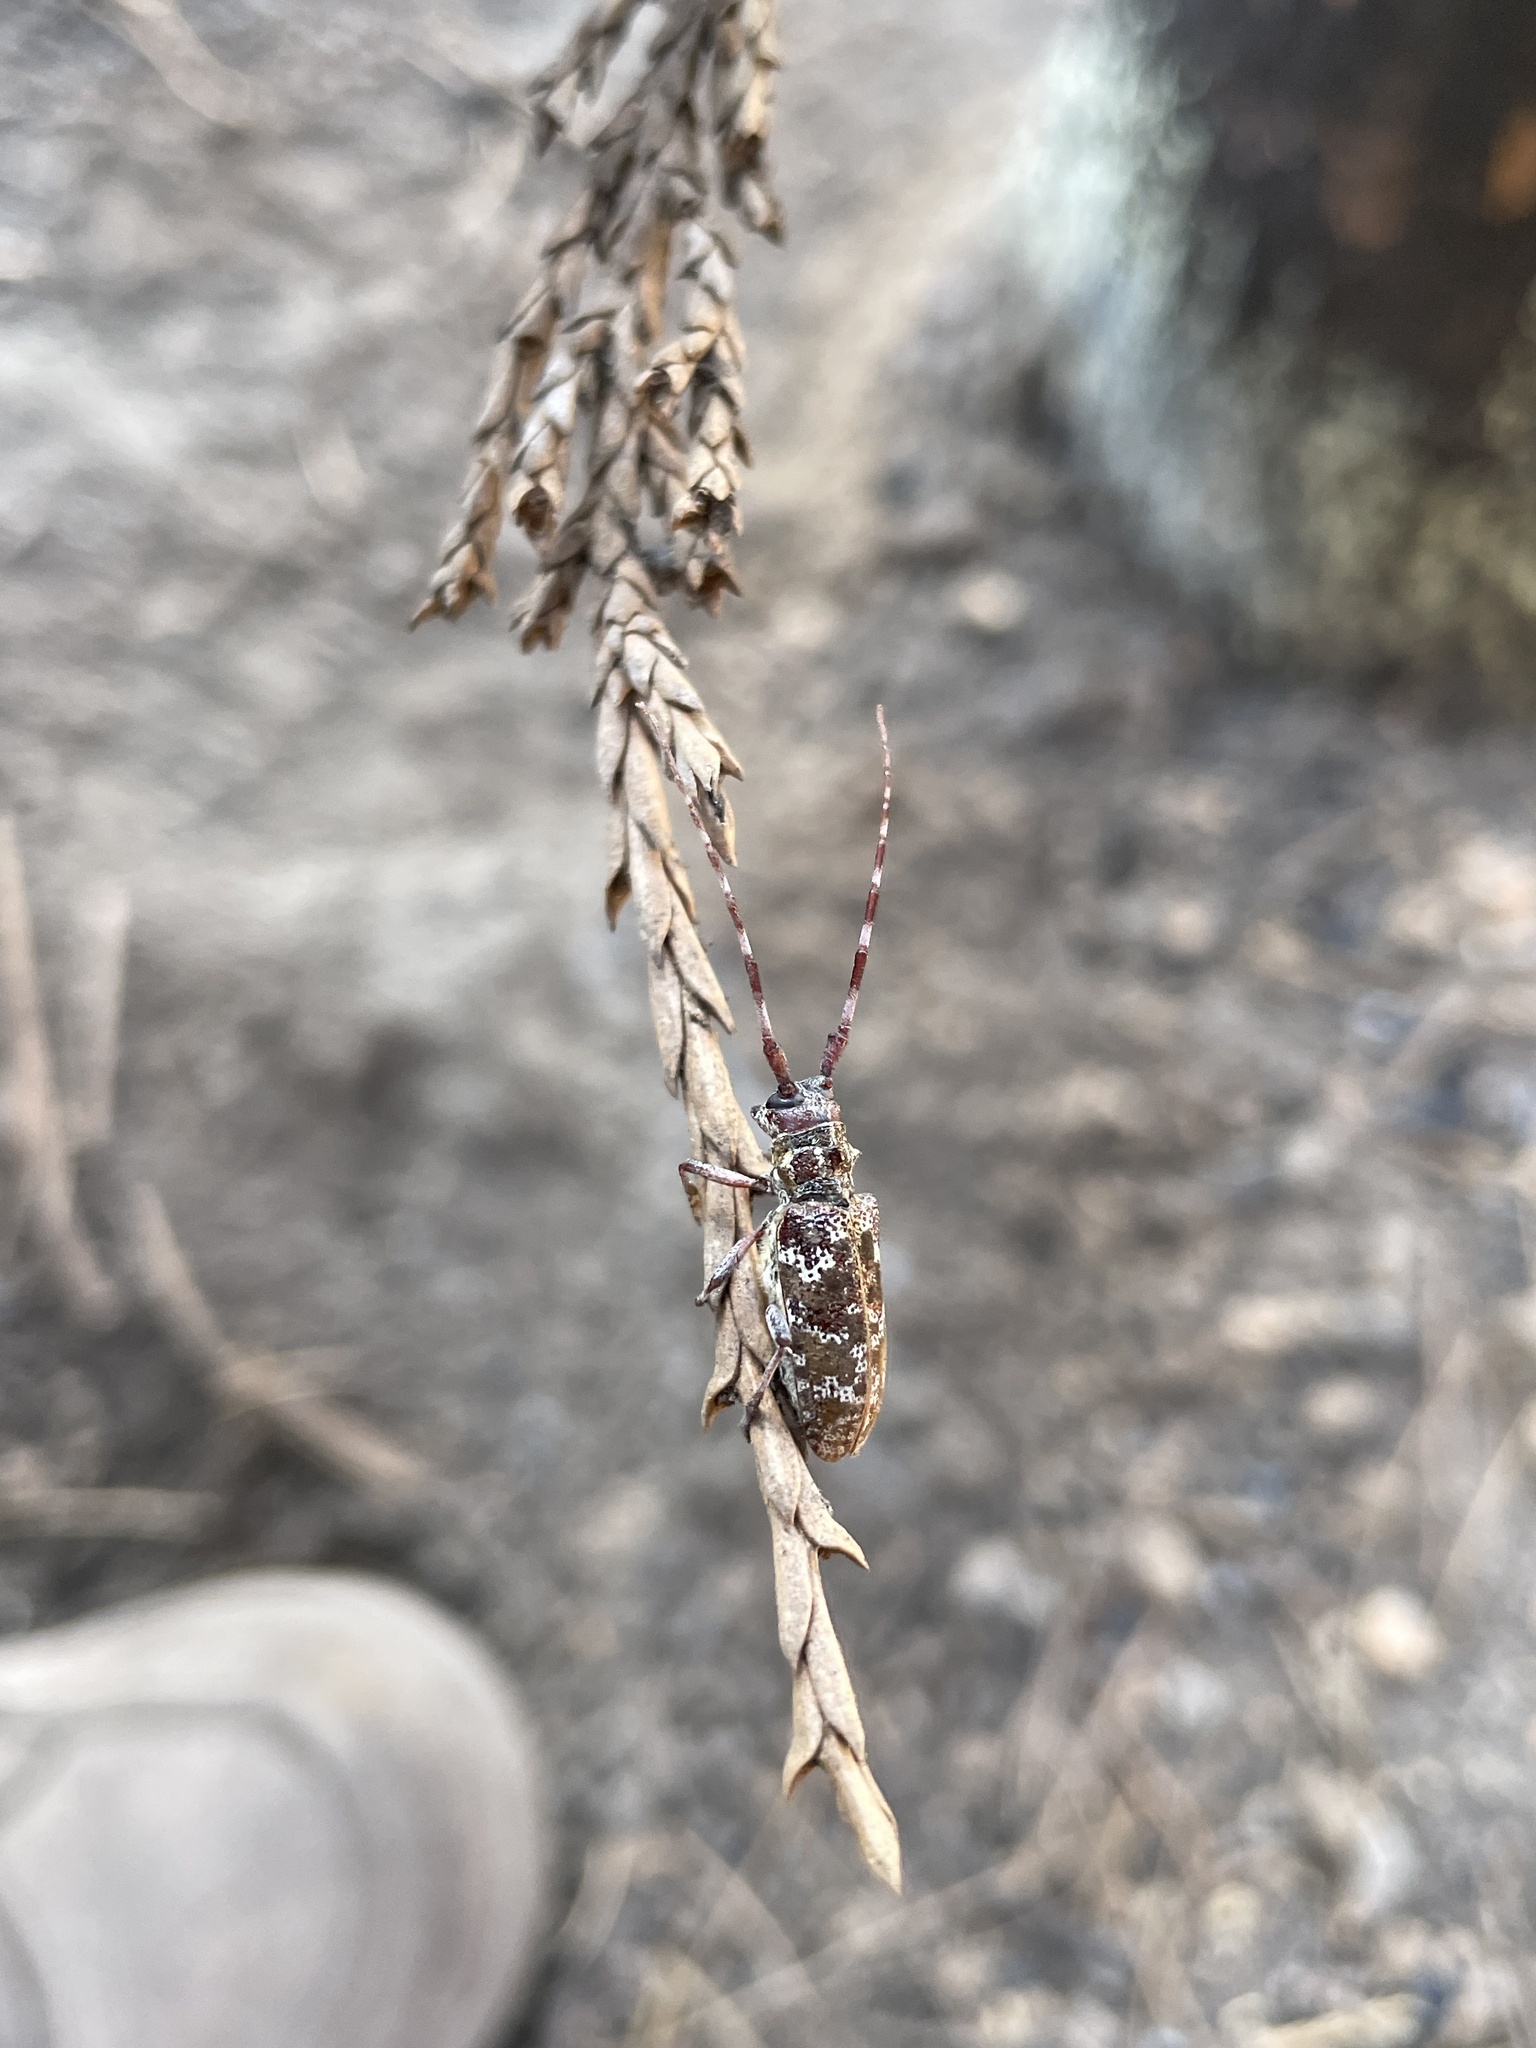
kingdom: Animalia
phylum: Arthropoda
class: Insecta
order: Coleoptera
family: Cerambycidae
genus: Monochamus
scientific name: Monochamus obtusus
